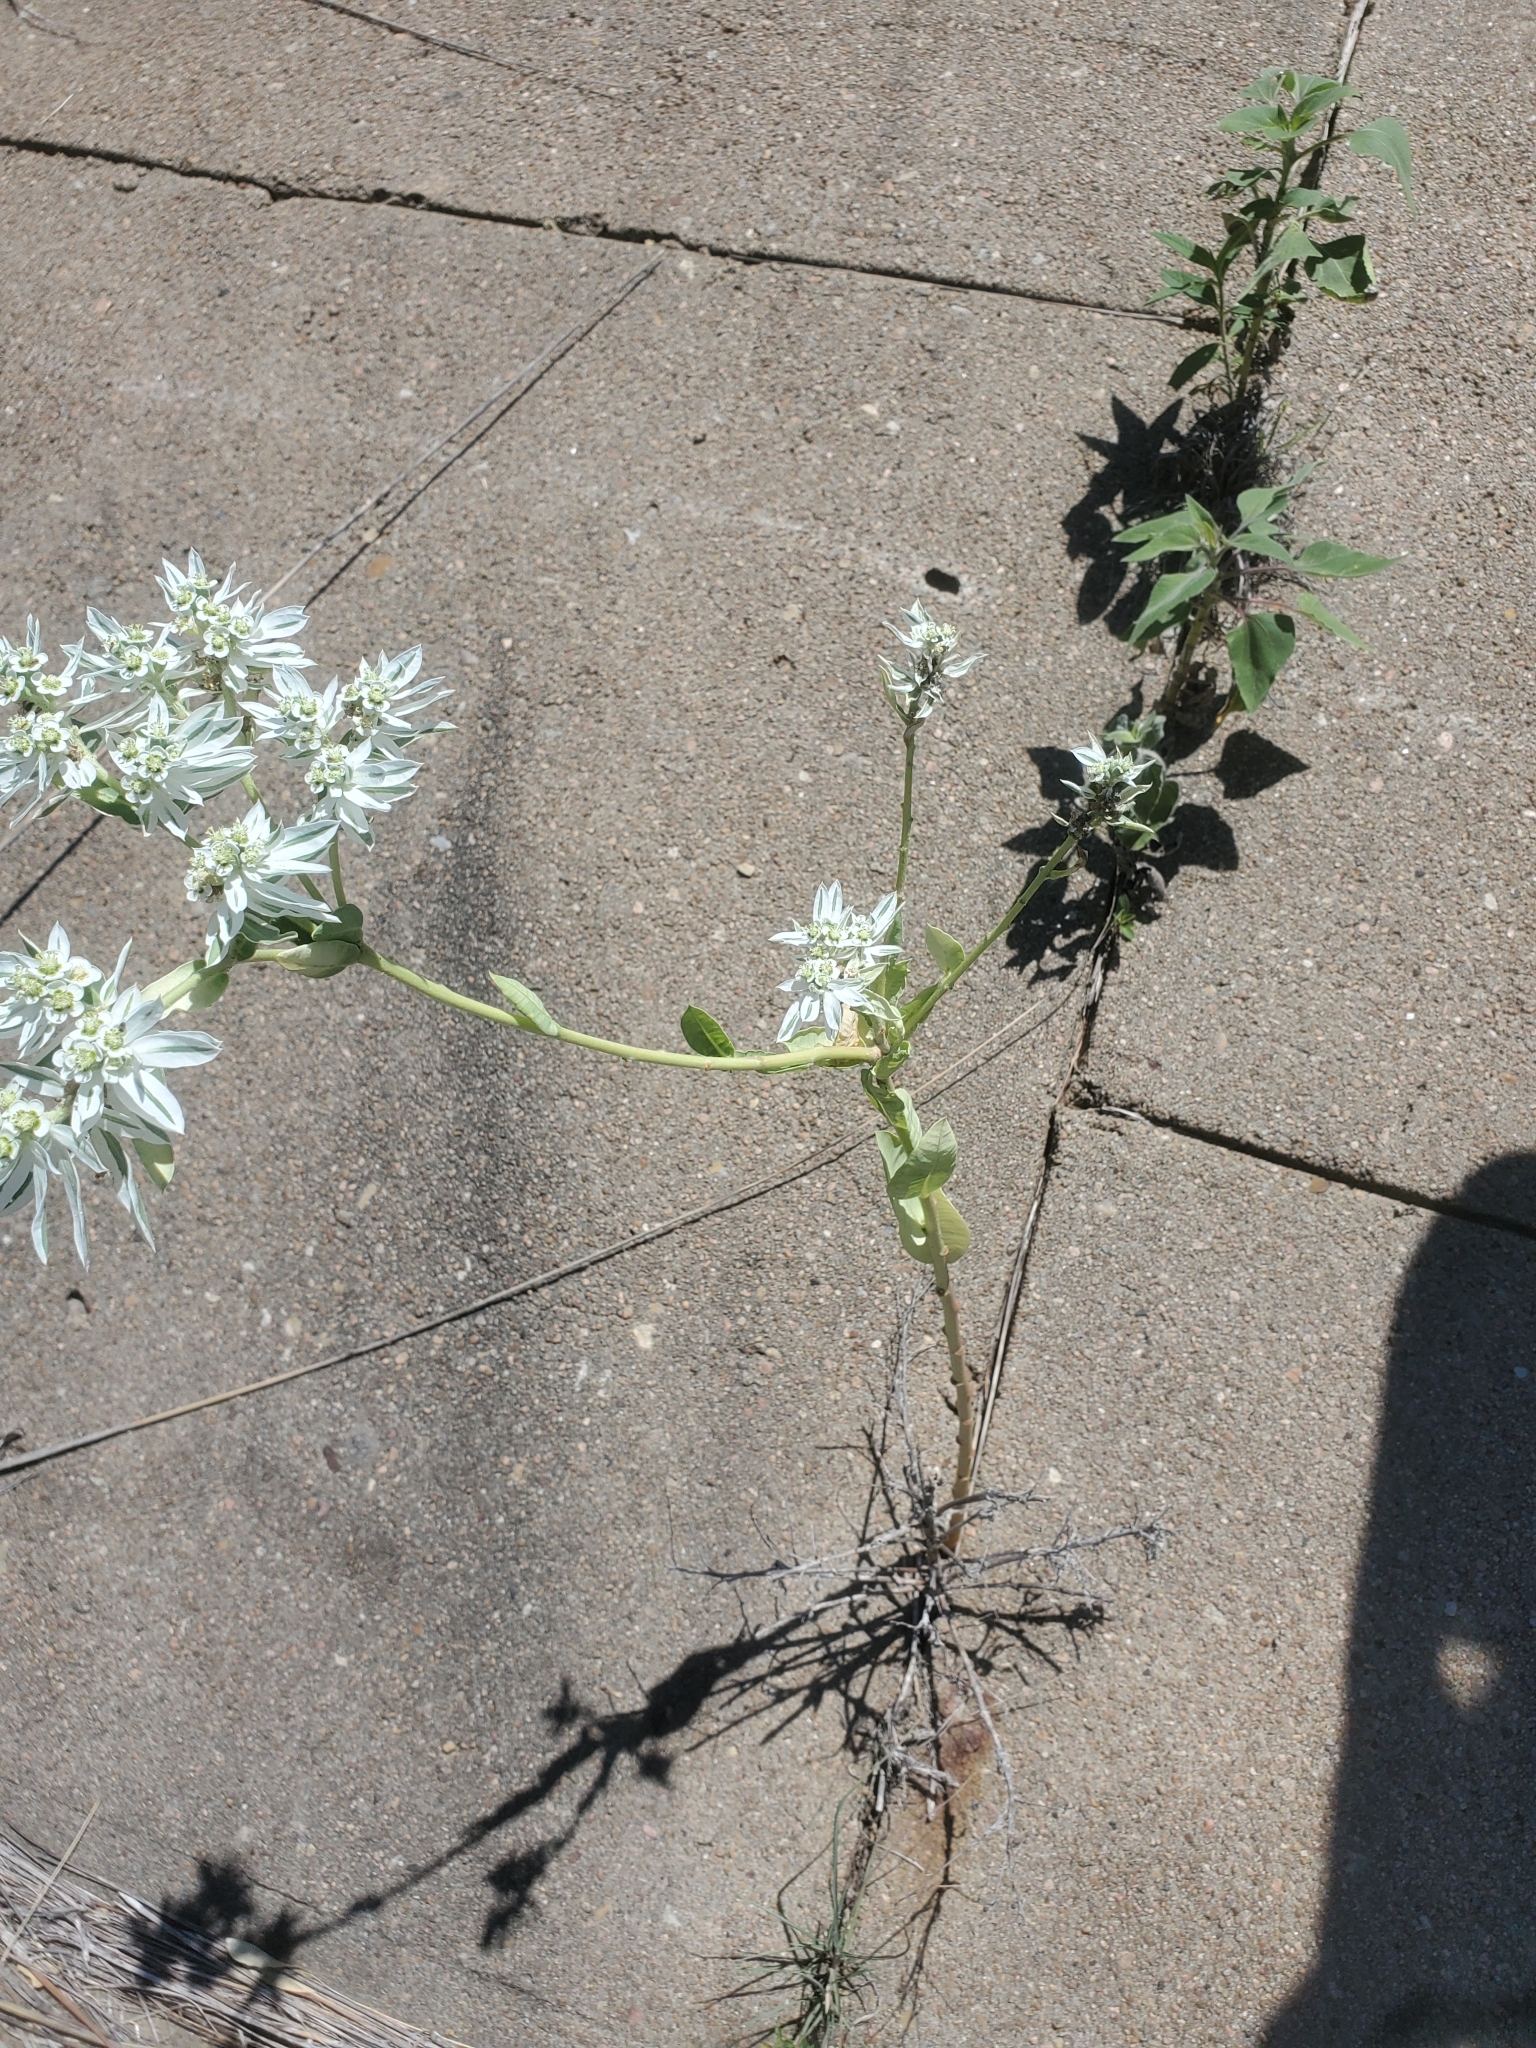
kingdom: Plantae
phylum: Tracheophyta
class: Magnoliopsida
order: Malpighiales
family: Euphorbiaceae
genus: Euphorbia
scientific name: Euphorbia marginata
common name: Ghostweed
